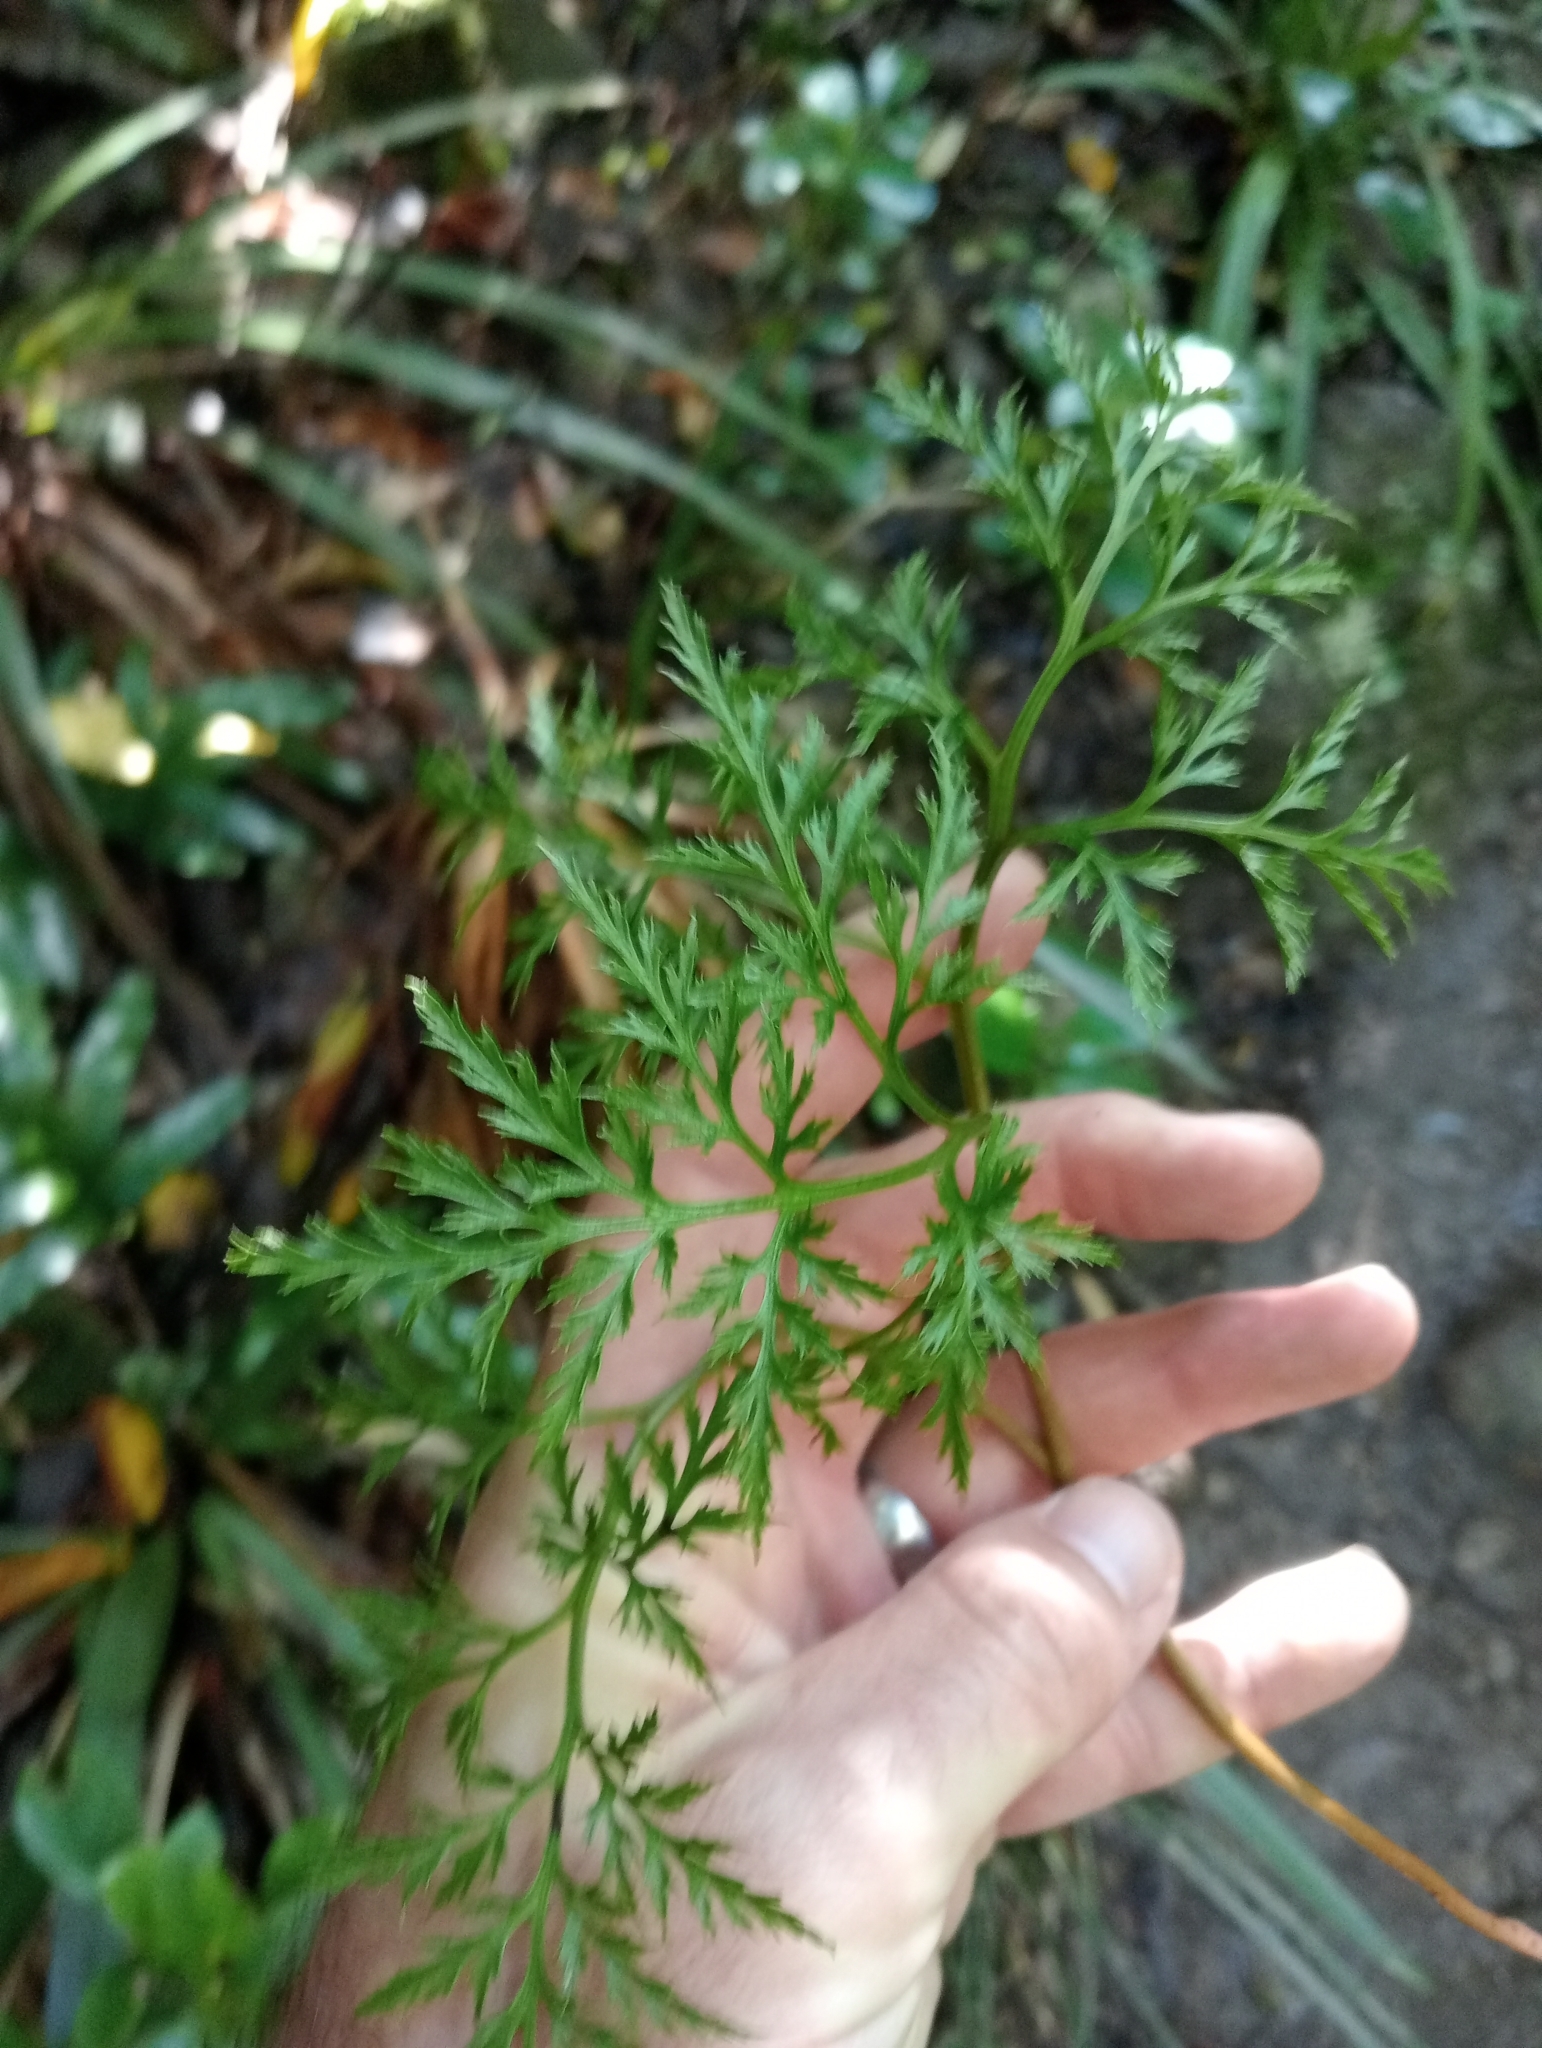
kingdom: Plantae
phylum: Tracheophyta
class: Polypodiopsida
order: Ophioglossales
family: Ophioglossaceae
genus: Sceptridium
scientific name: Sceptridium biforme
